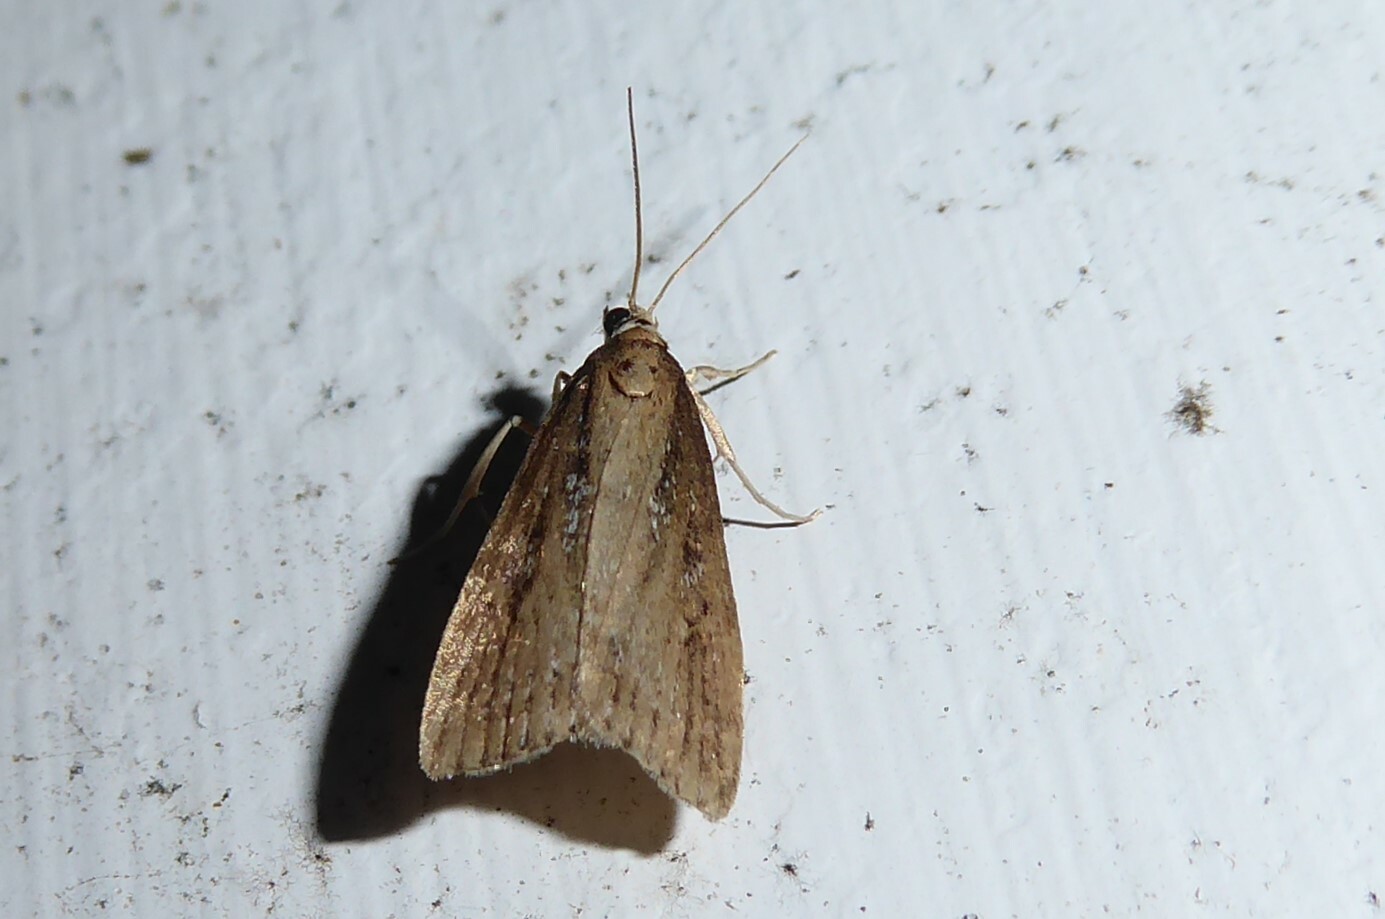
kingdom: Animalia
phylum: Arthropoda
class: Insecta
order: Lepidoptera
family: Crambidae
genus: Eudonia
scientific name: Eudonia octophora
